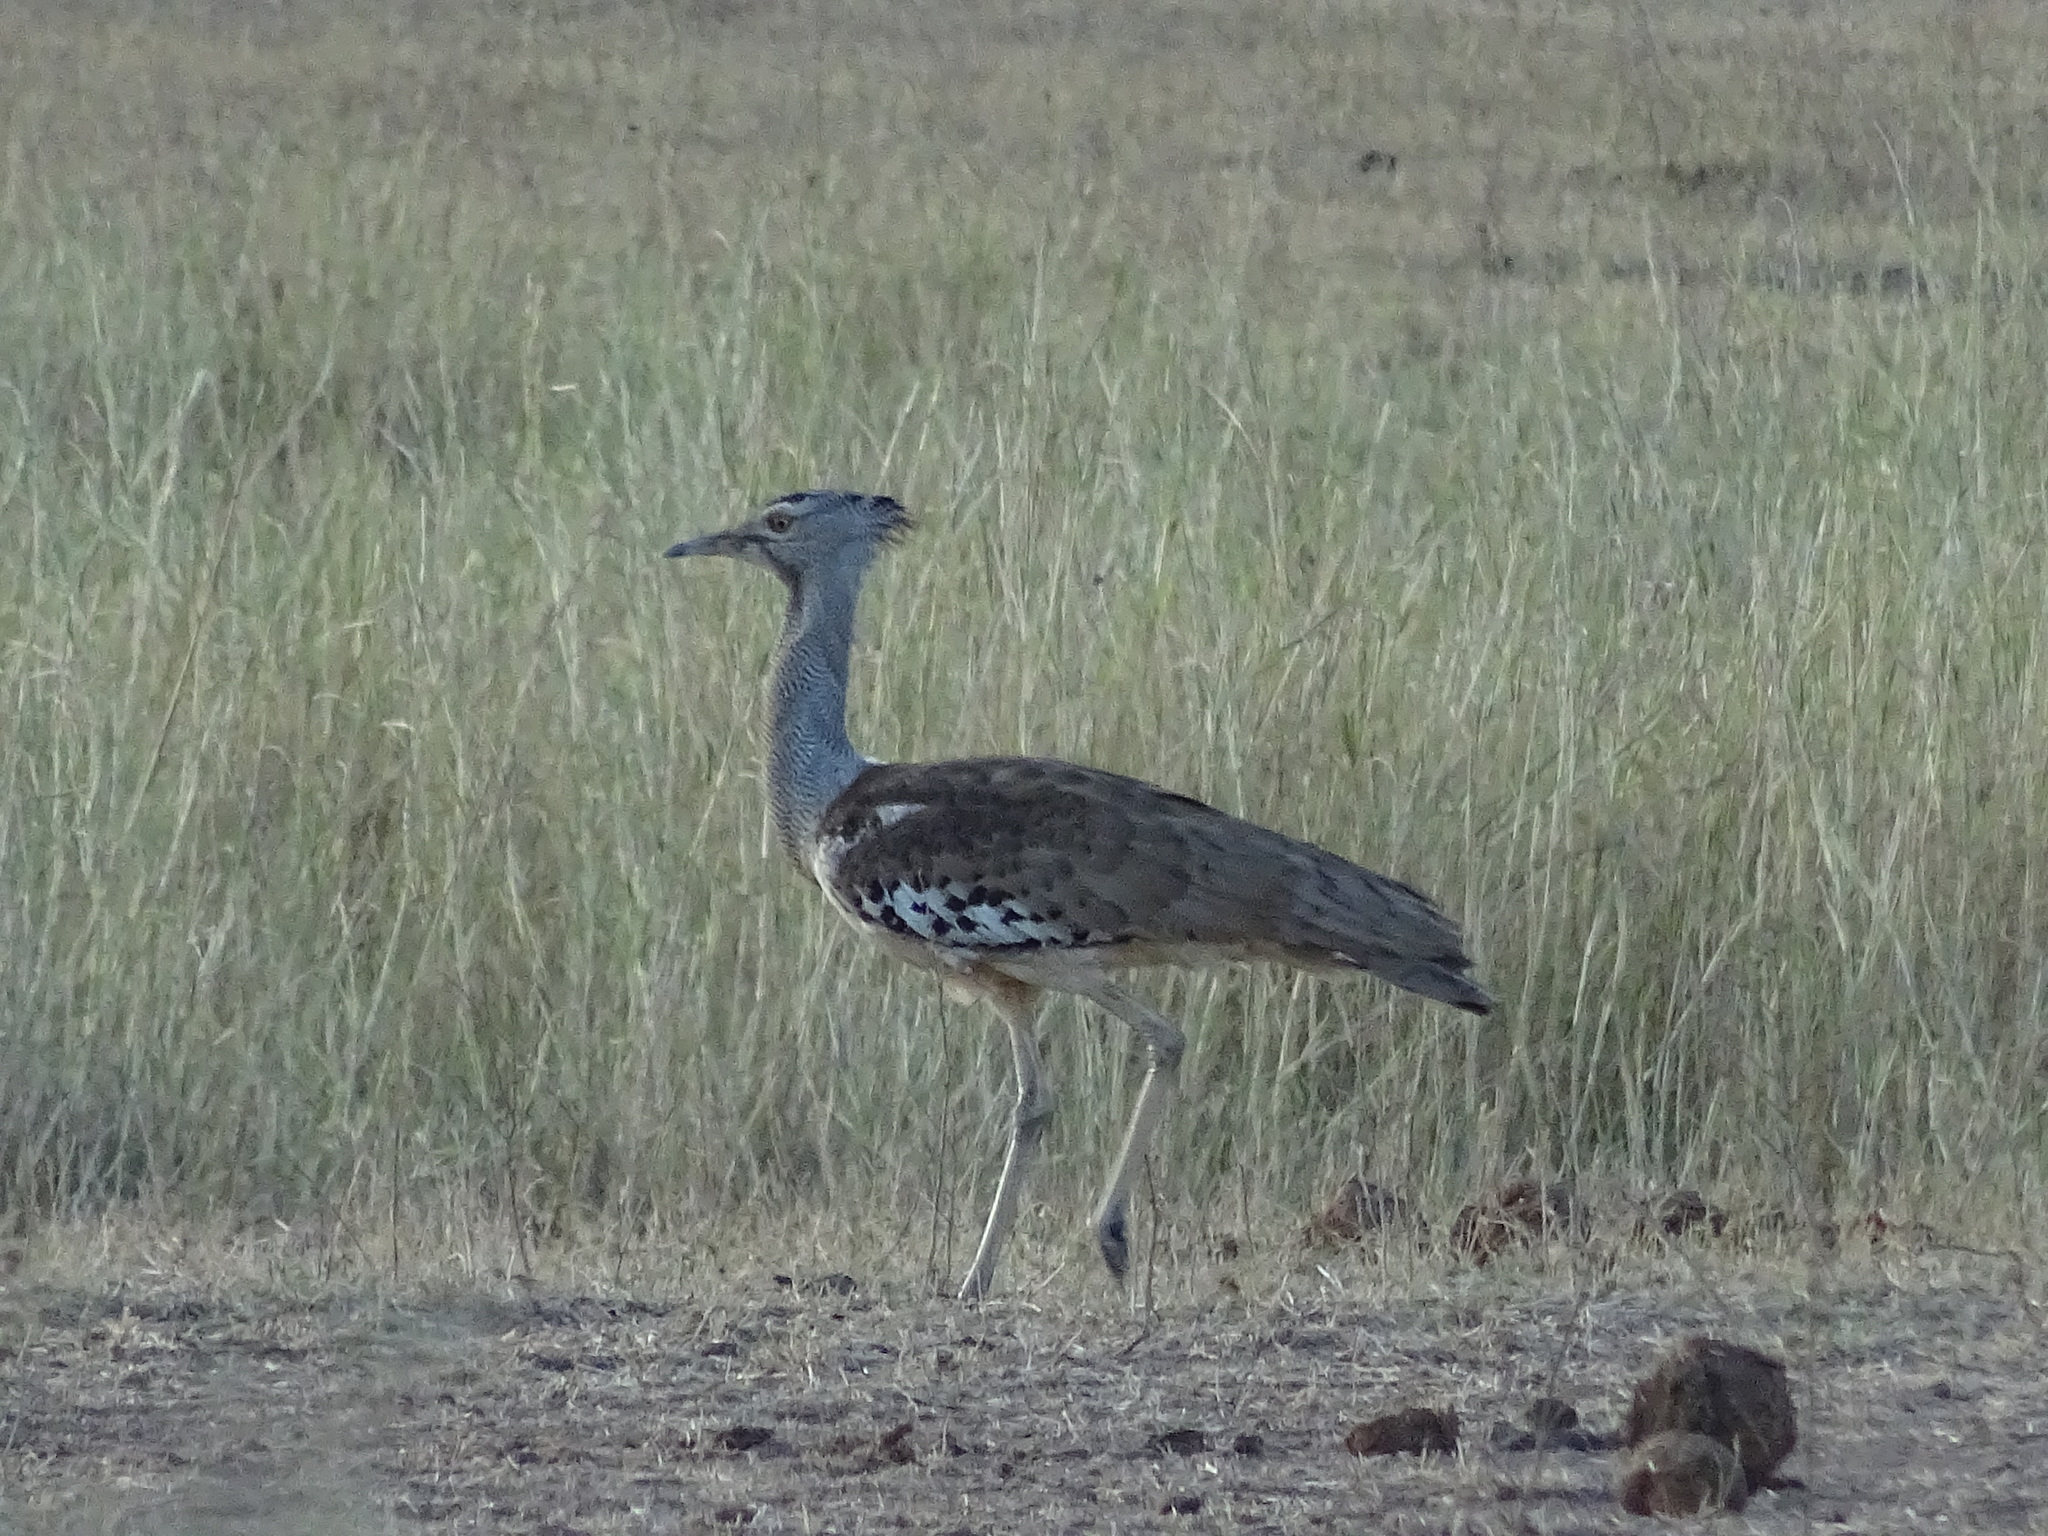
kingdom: Animalia
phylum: Chordata
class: Aves
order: Otidiformes
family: Otididae
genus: Ardeotis
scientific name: Ardeotis kori
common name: Kori bustard
